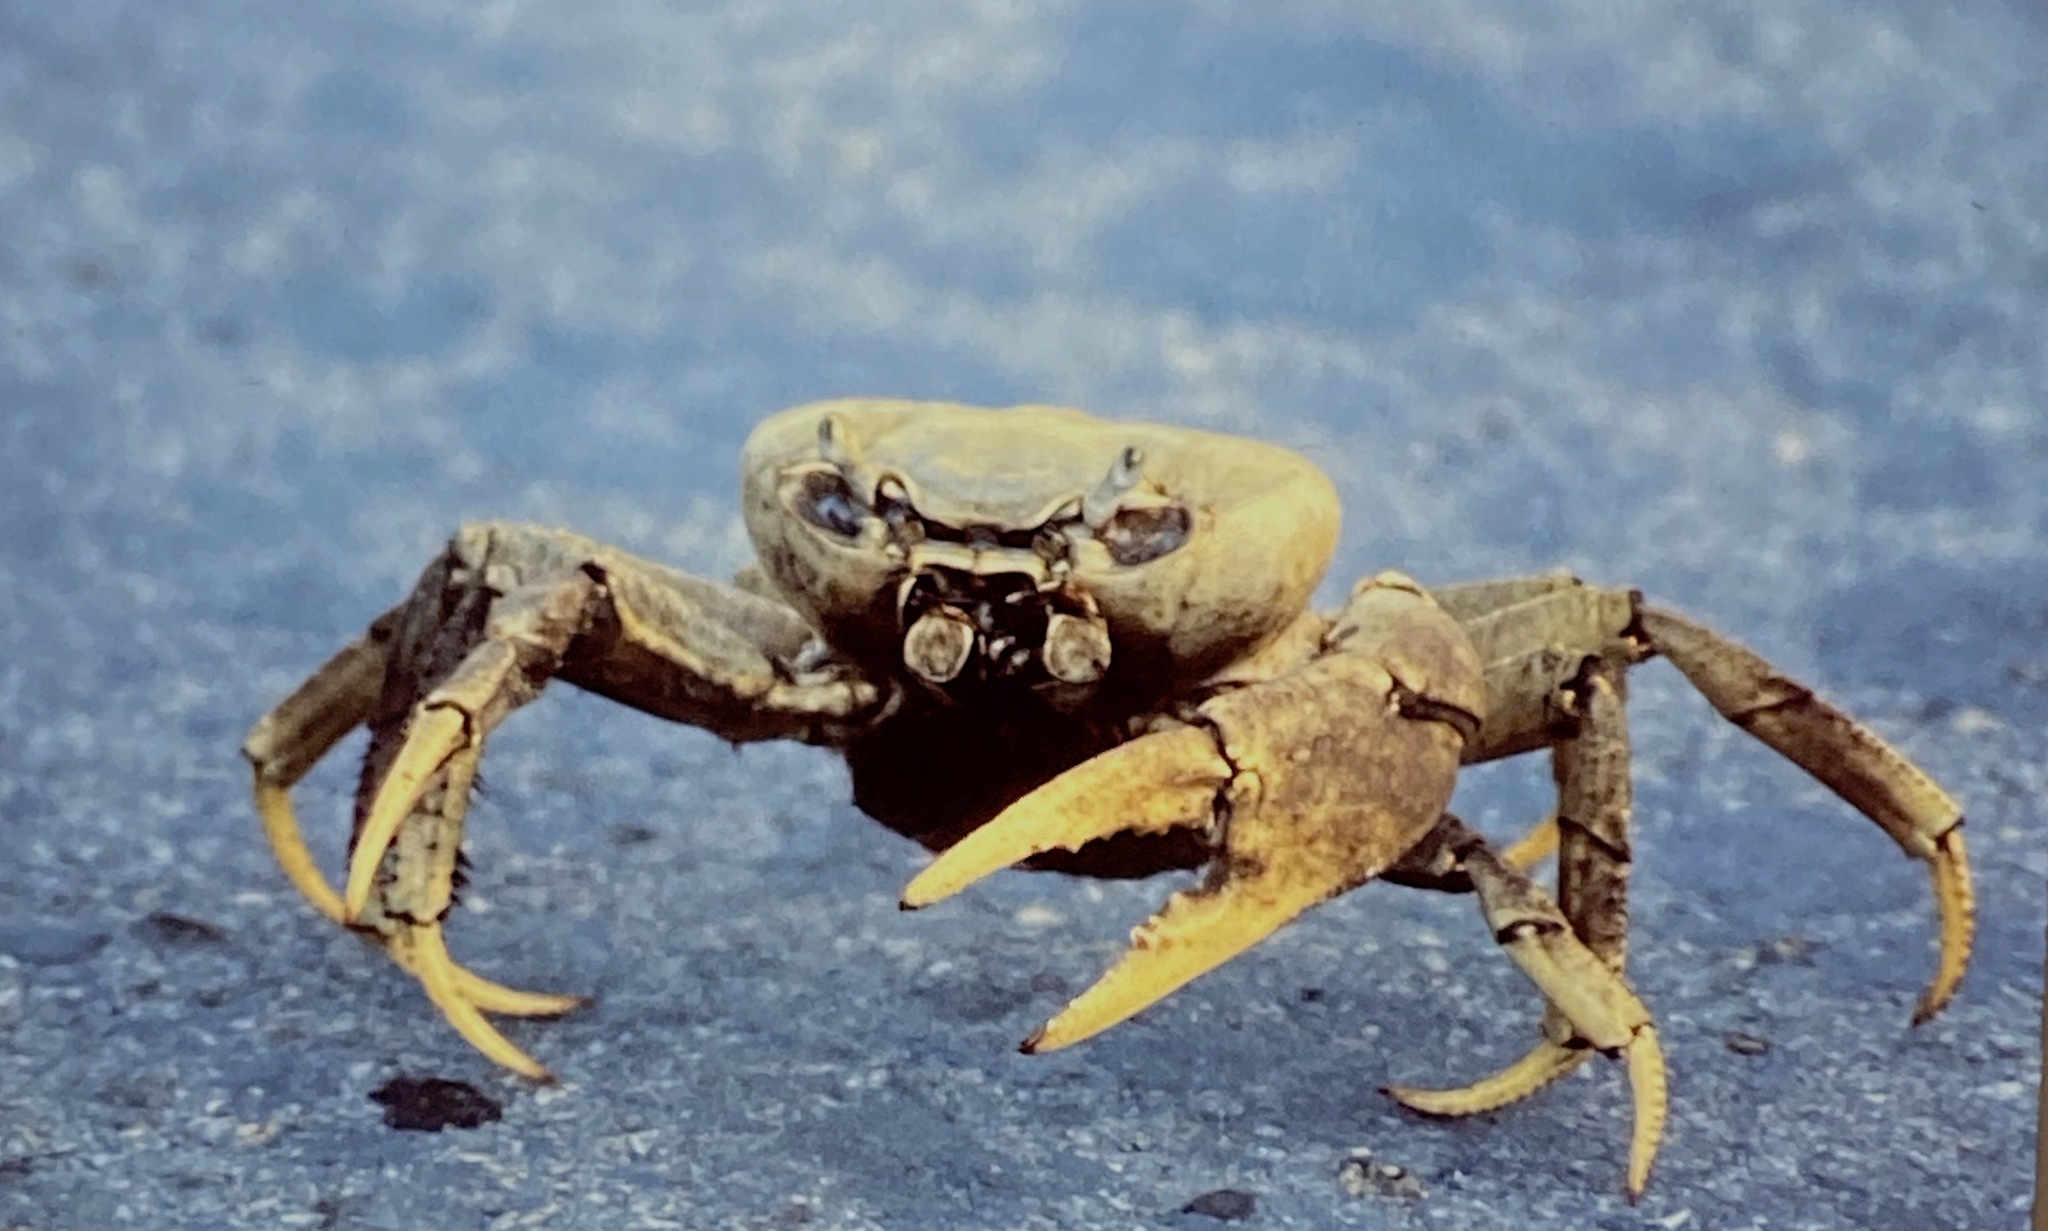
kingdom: Animalia
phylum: Arthropoda
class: Malacostraca
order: Decapoda
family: Gecarcinidae
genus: Cardisoma
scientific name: Cardisoma guanhumi
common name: Great land crab
